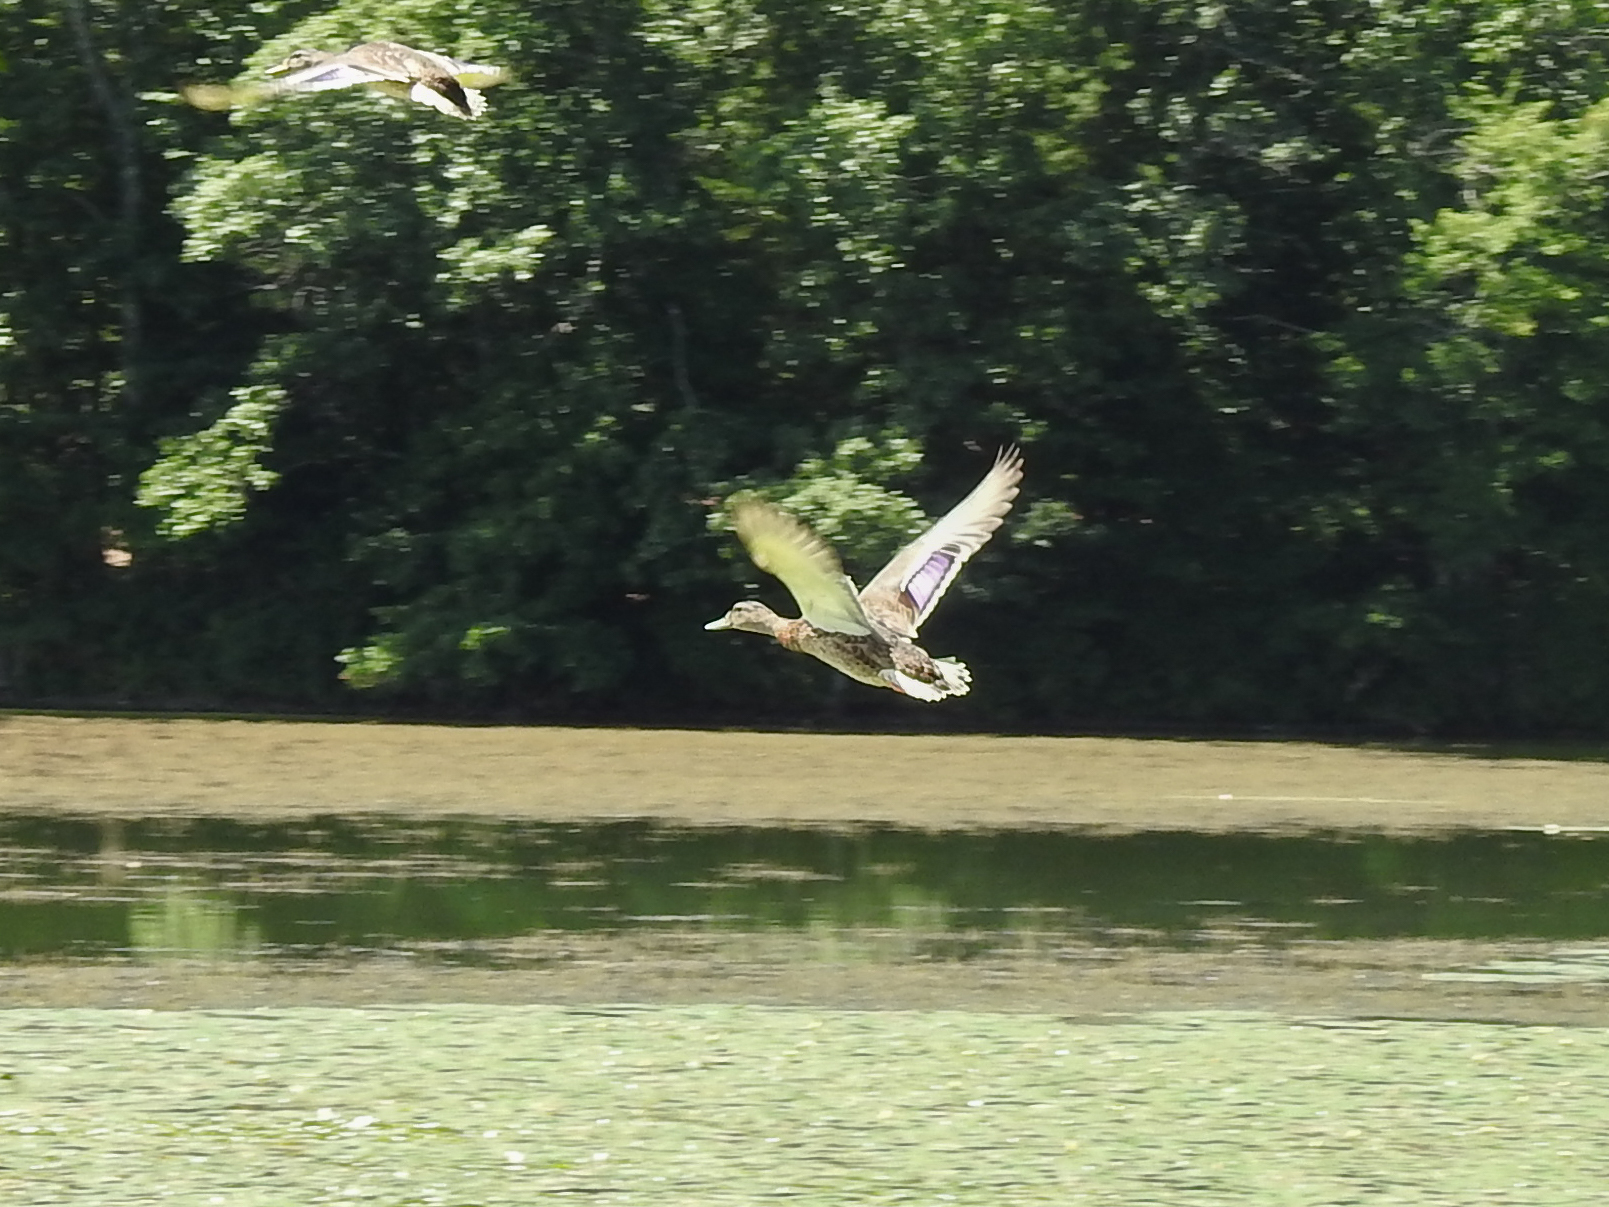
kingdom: Animalia
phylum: Chordata
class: Aves
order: Anseriformes
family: Anatidae
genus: Anas
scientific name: Anas platyrhynchos
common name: Mallard
